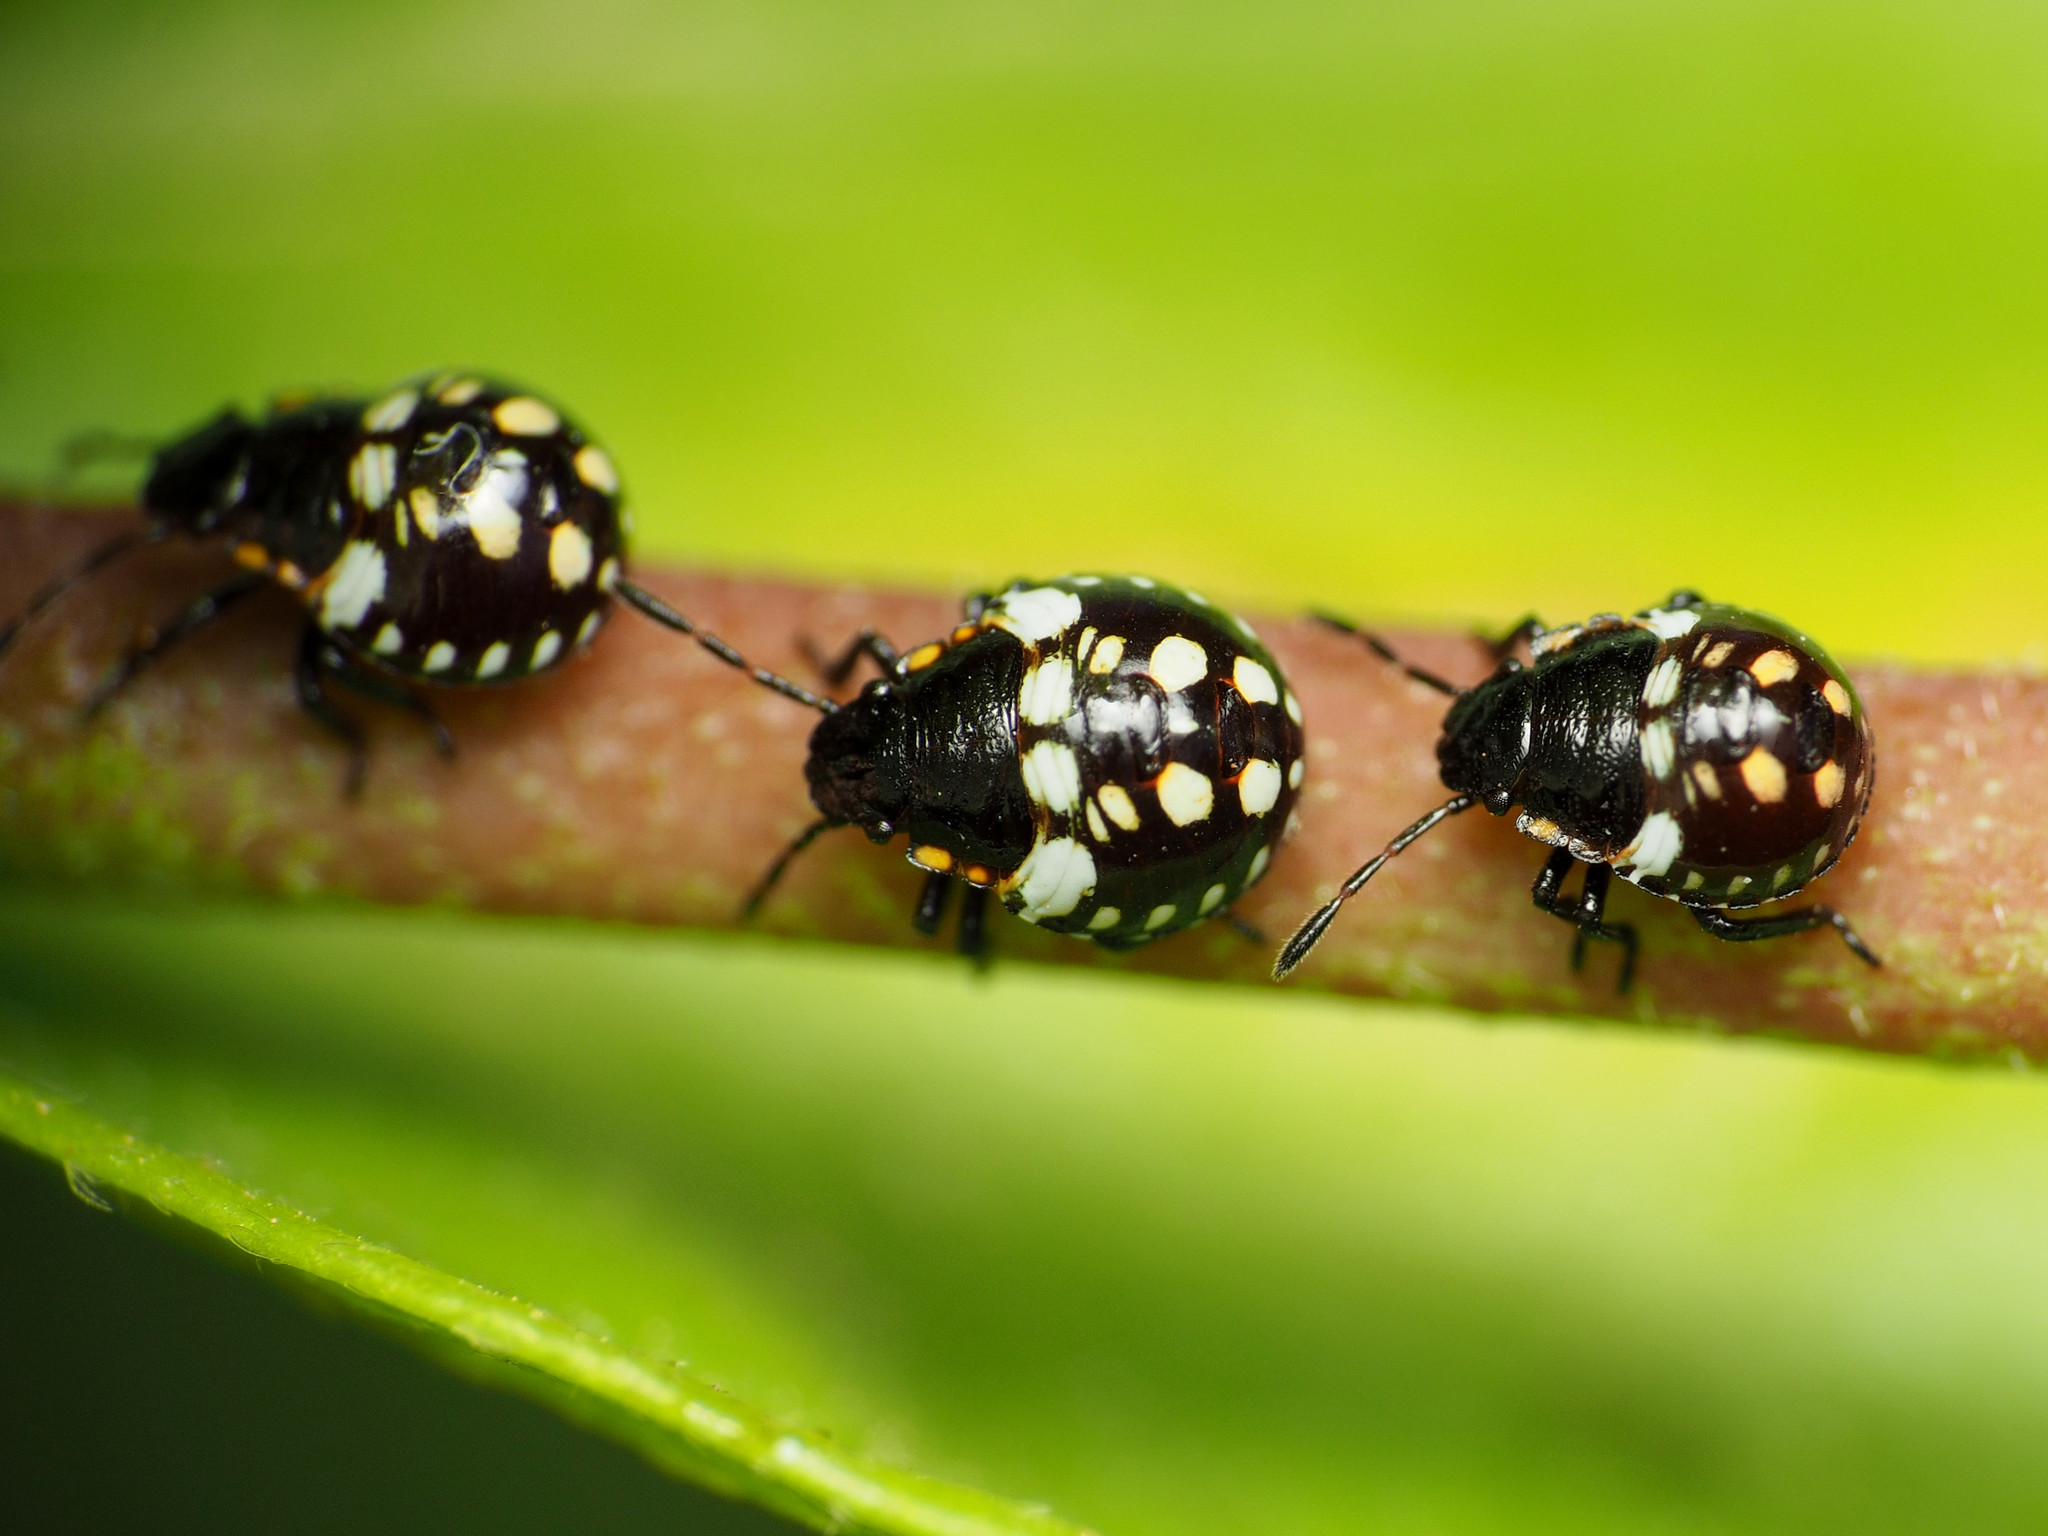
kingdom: Animalia
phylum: Arthropoda
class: Insecta
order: Hemiptera
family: Pentatomidae
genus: Nezara
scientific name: Nezara viridula
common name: Southern green stink bug
